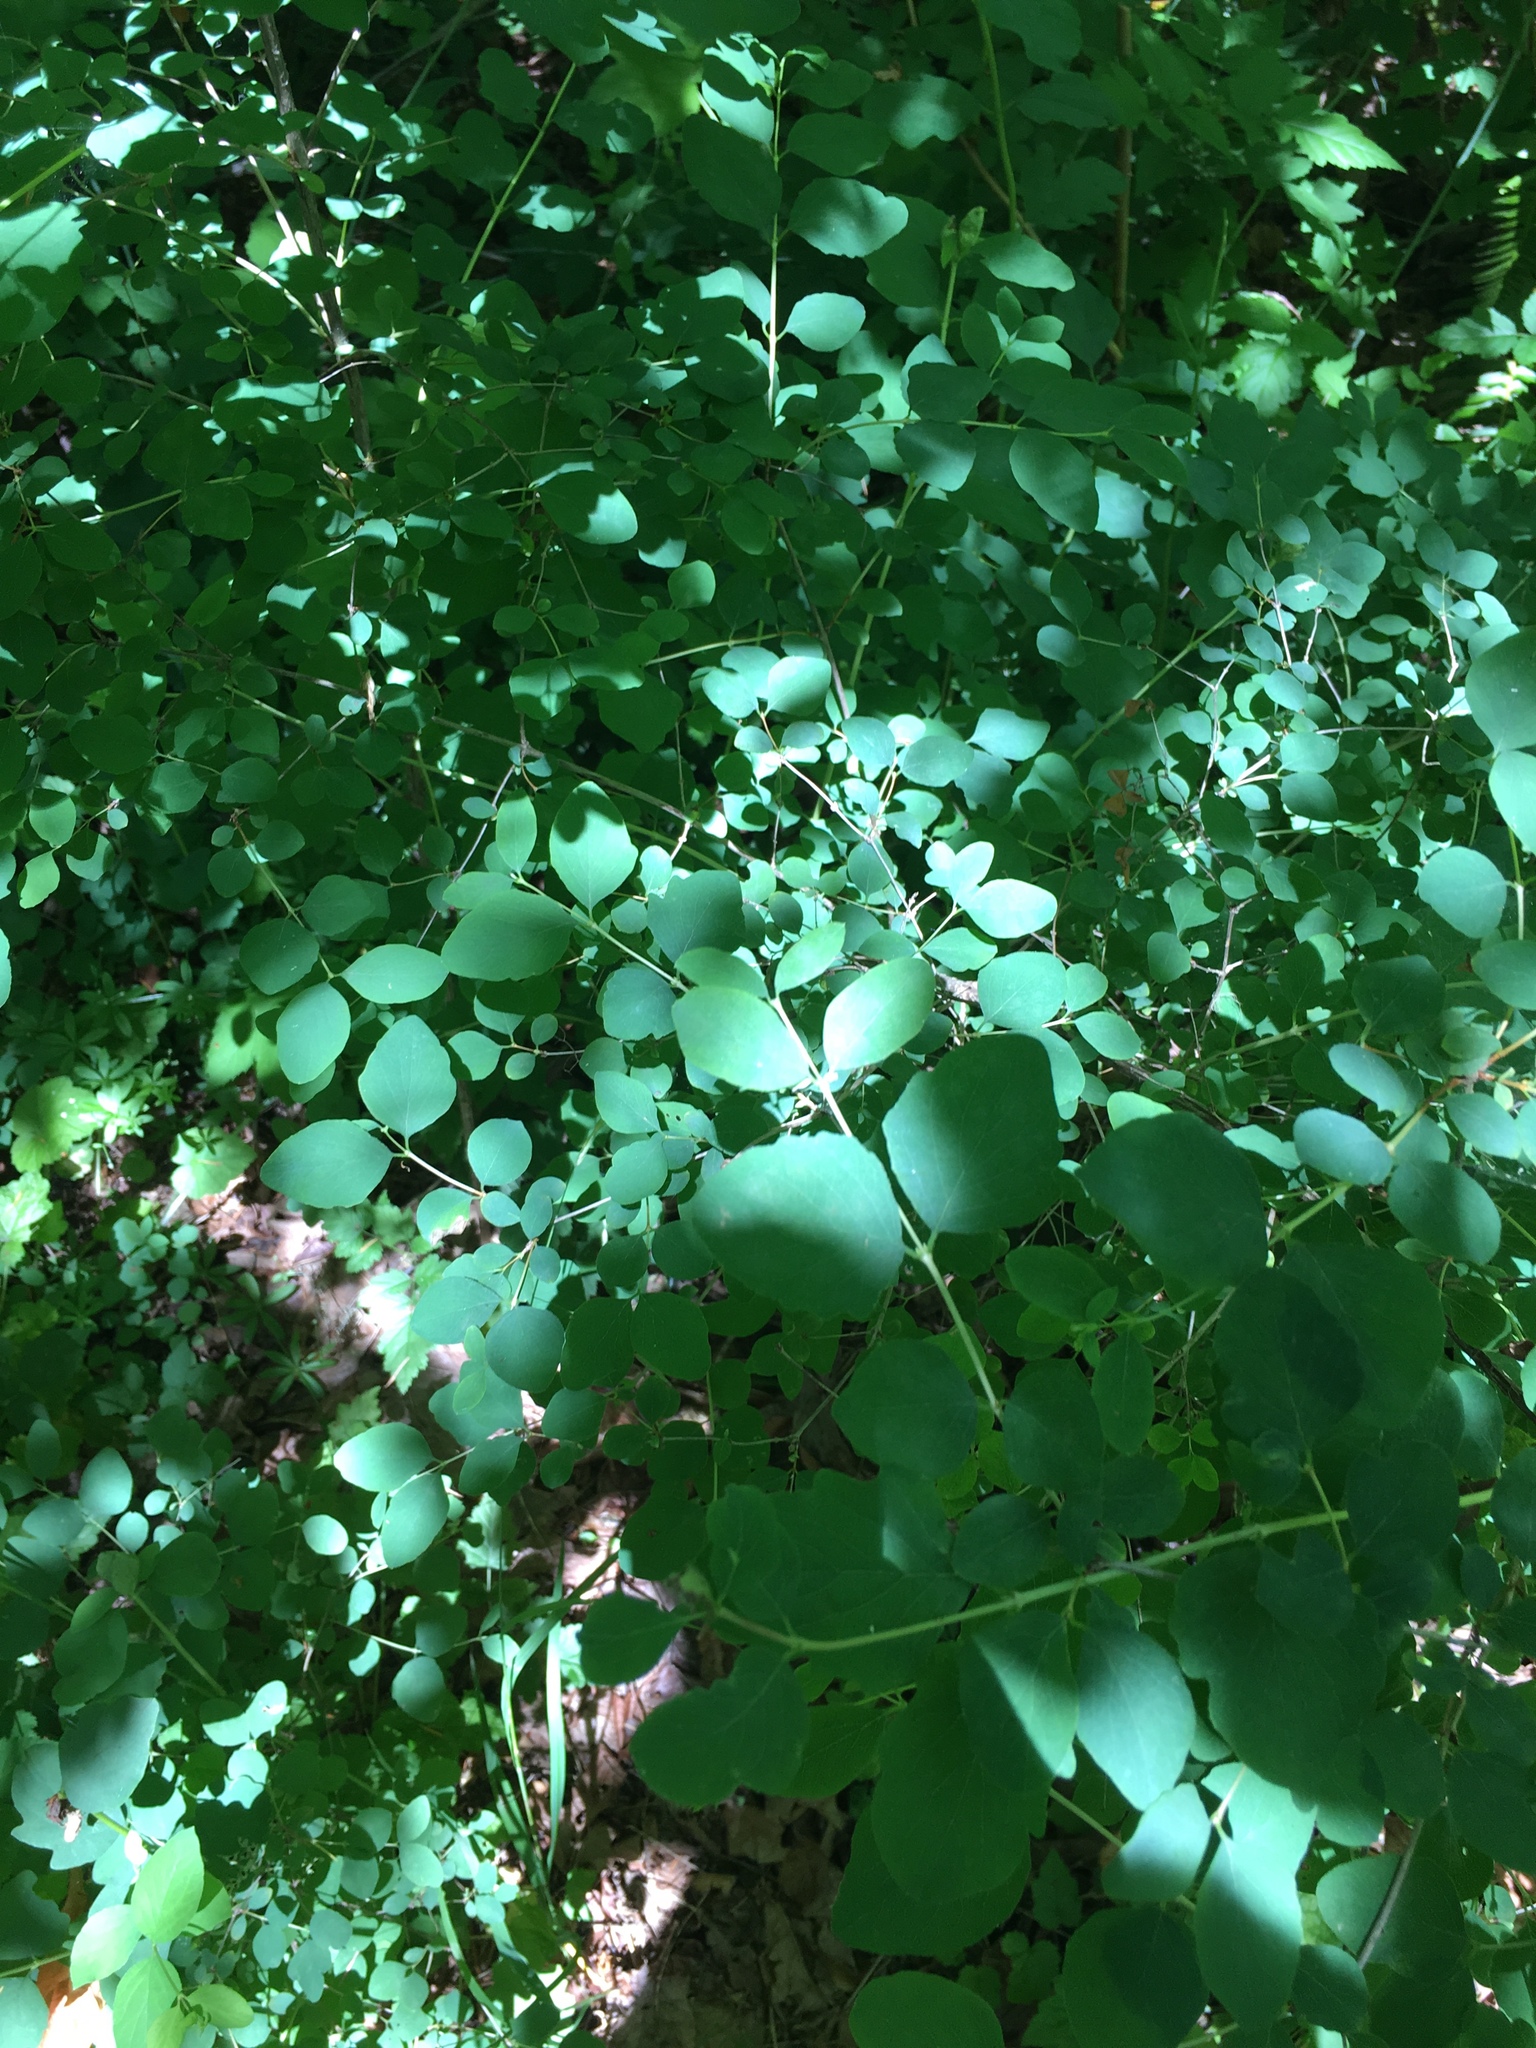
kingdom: Plantae
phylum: Tracheophyta
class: Magnoliopsida
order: Dipsacales
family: Caprifoliaceae
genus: Symphoricarpos
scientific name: Symphoricarpos albus
